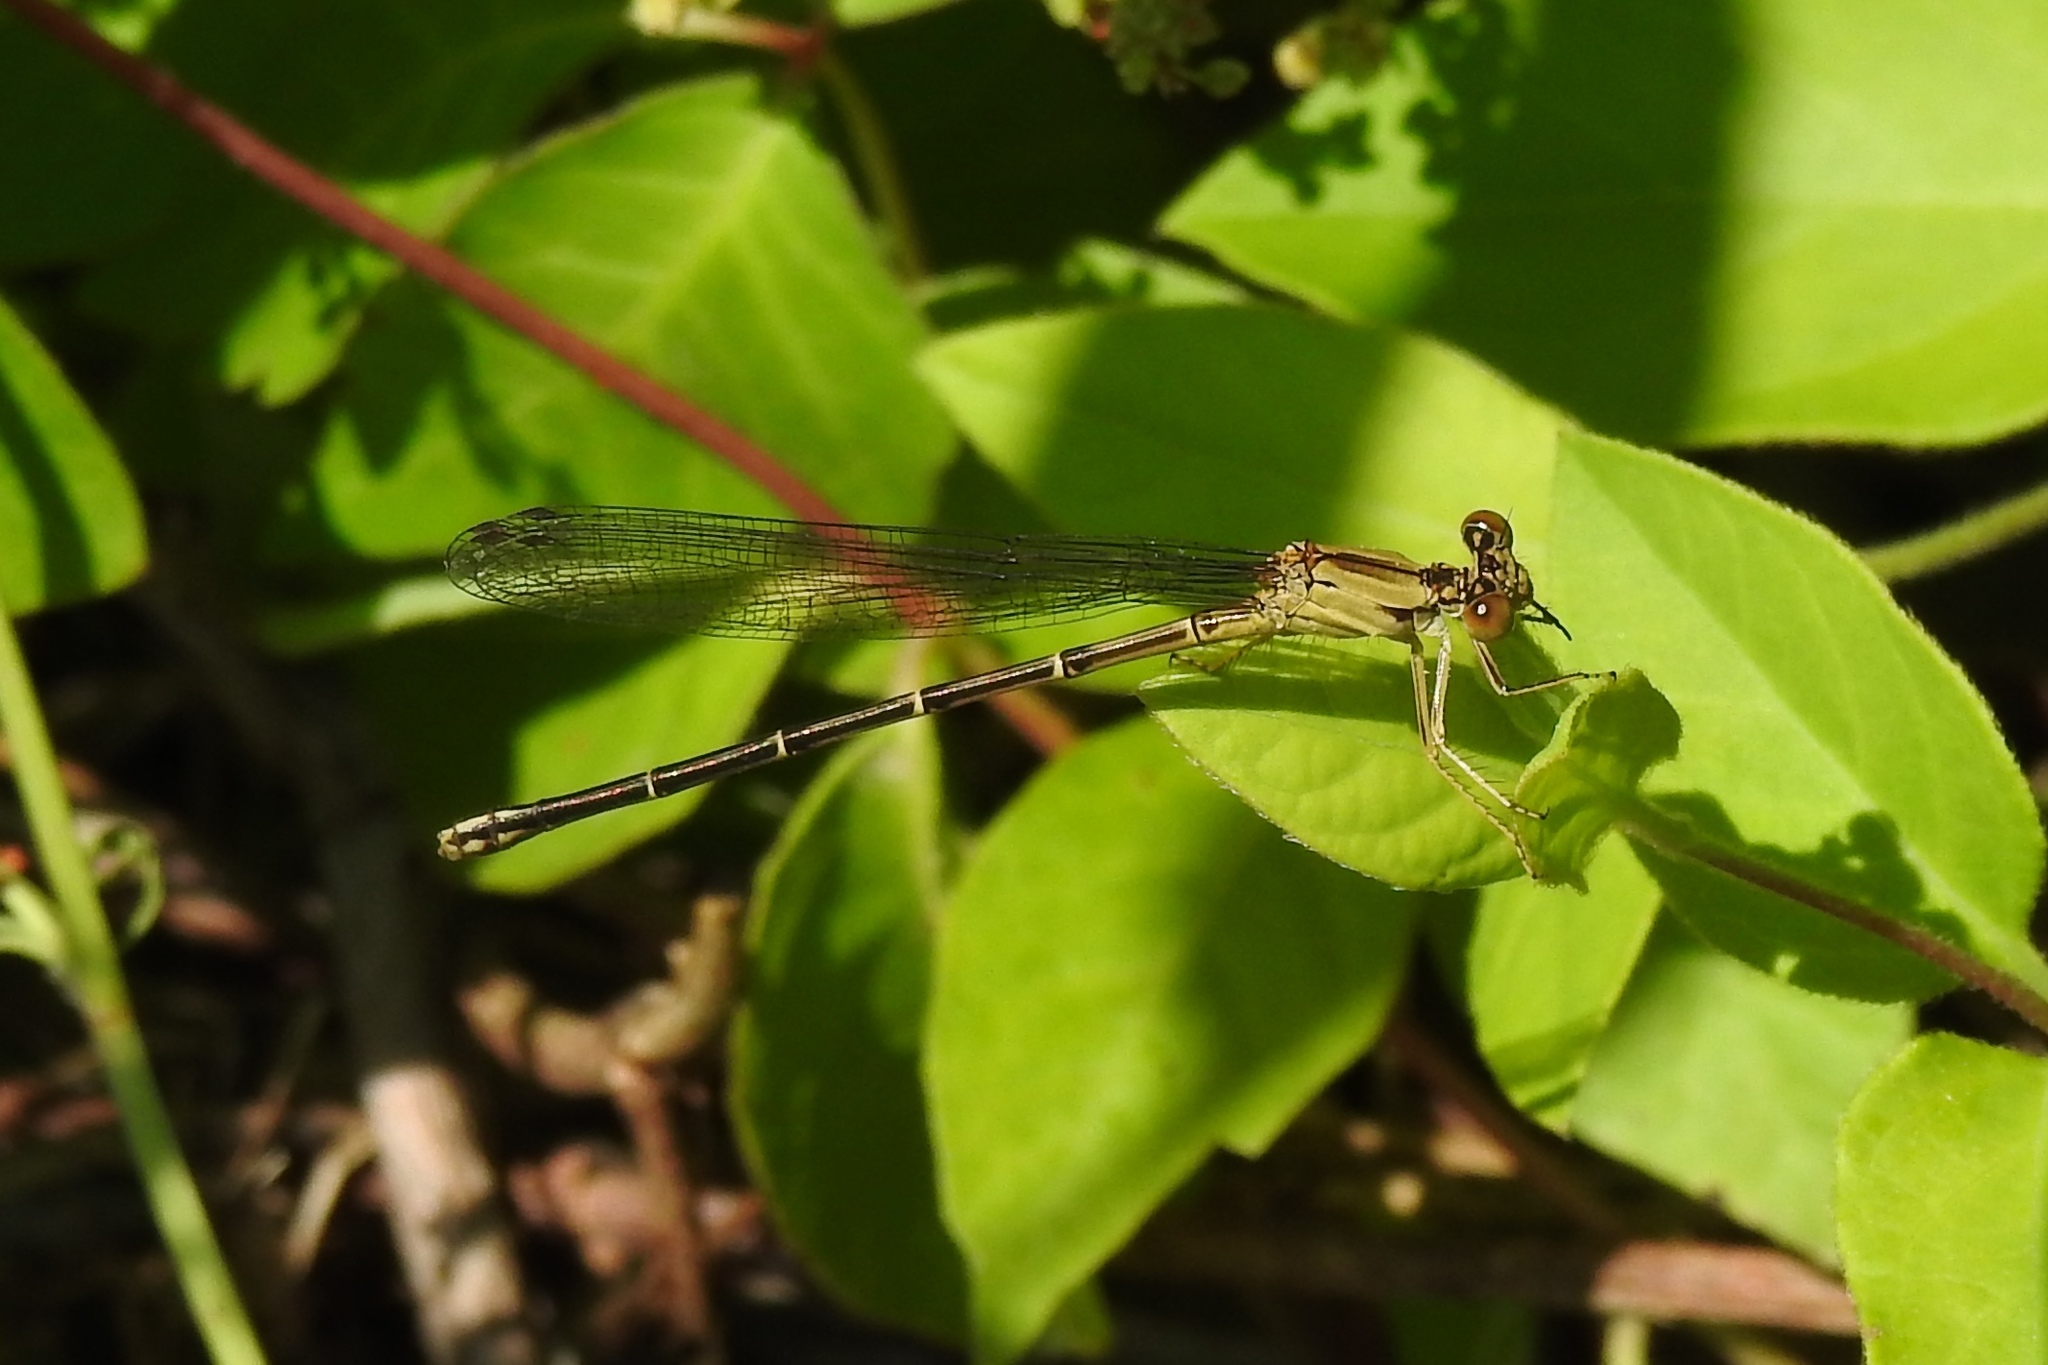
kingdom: Animalia
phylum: Arthropoda
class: Insecta
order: Odonata
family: Coenagrionidae
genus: Argia
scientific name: Argia apicalis
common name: Blue-fronted dancer
